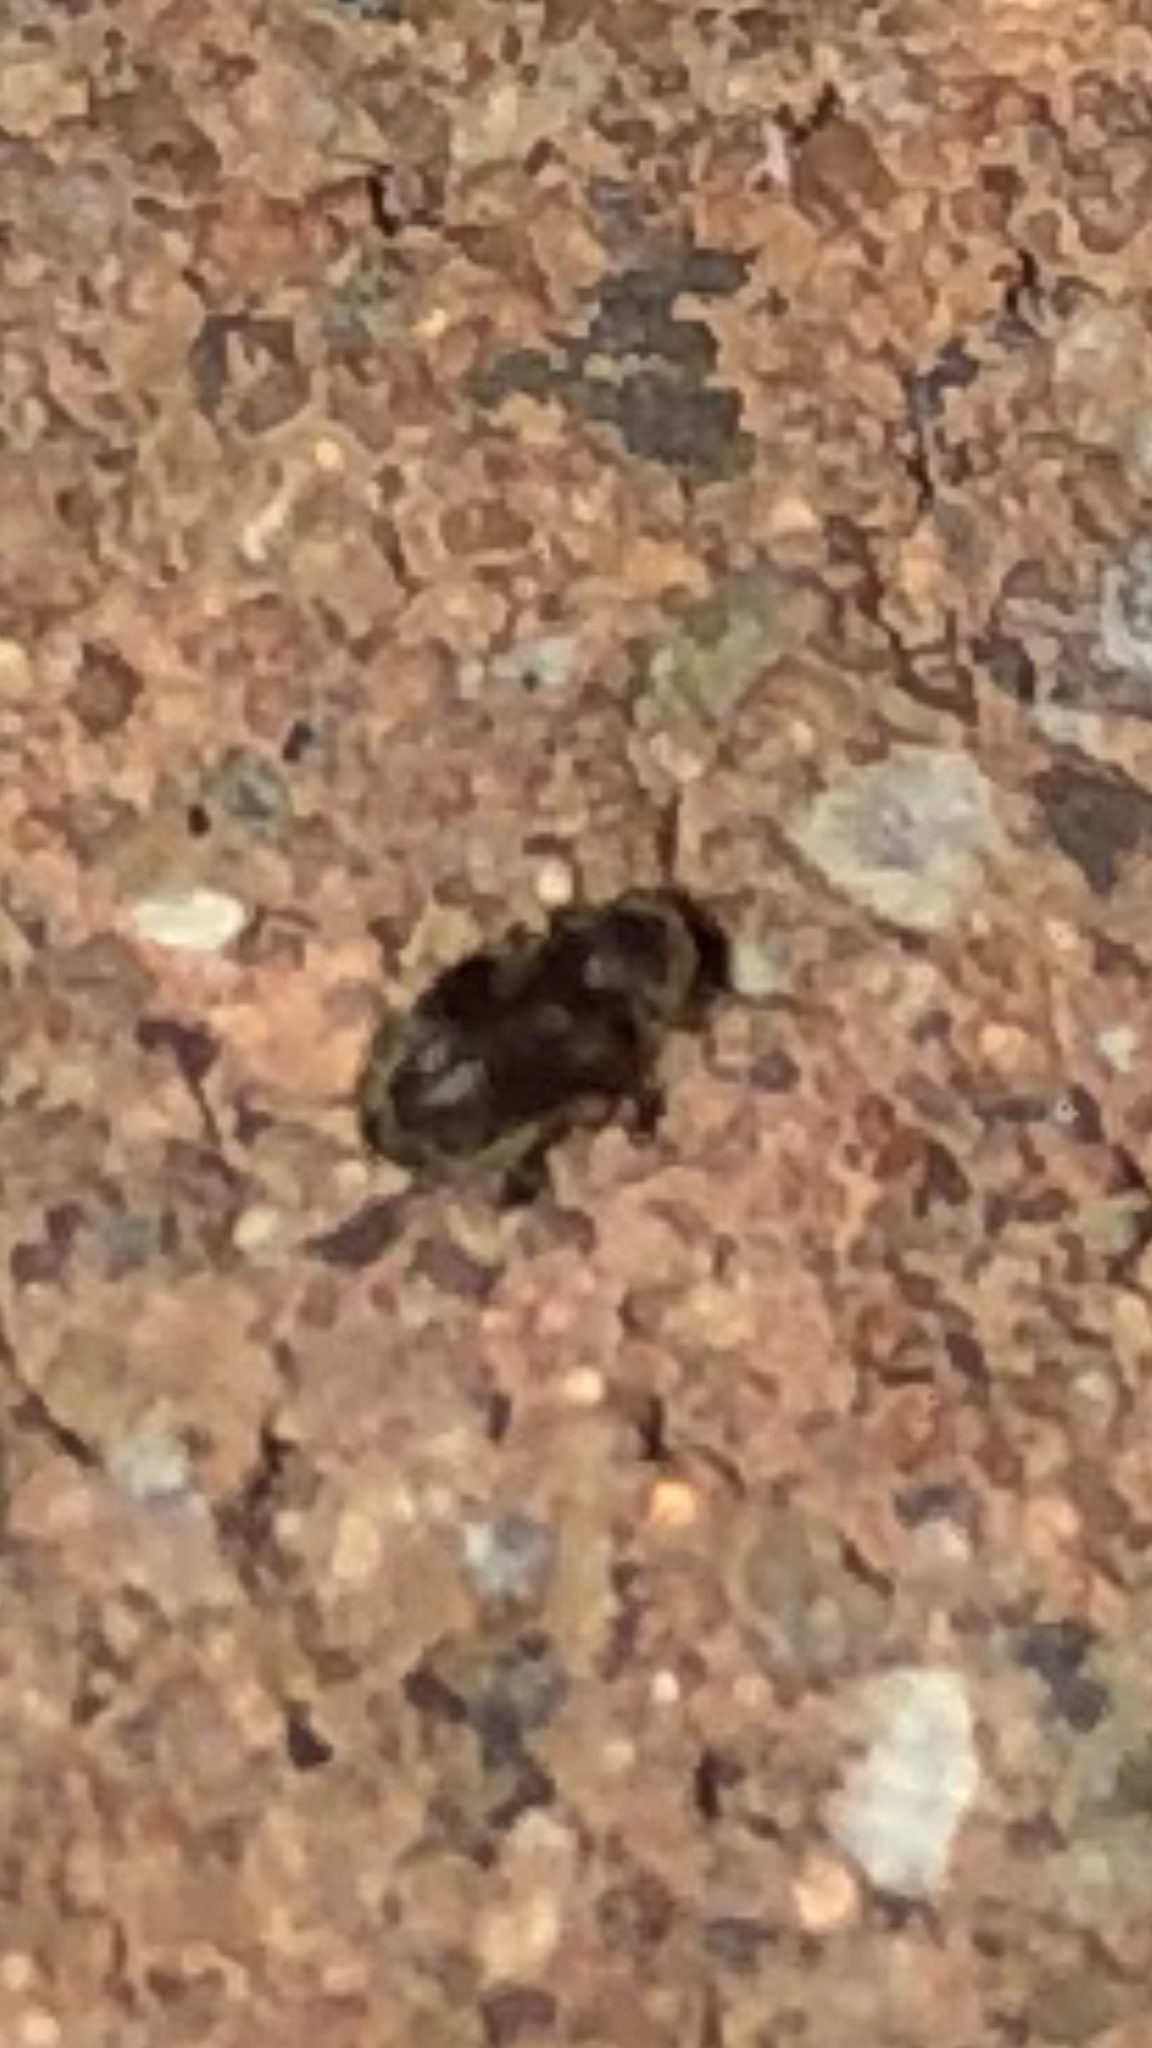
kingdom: Animalia
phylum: Arthropoda
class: Insecta
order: Coleoptera
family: Anobiidae
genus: Protheca
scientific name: Protheca hispida
